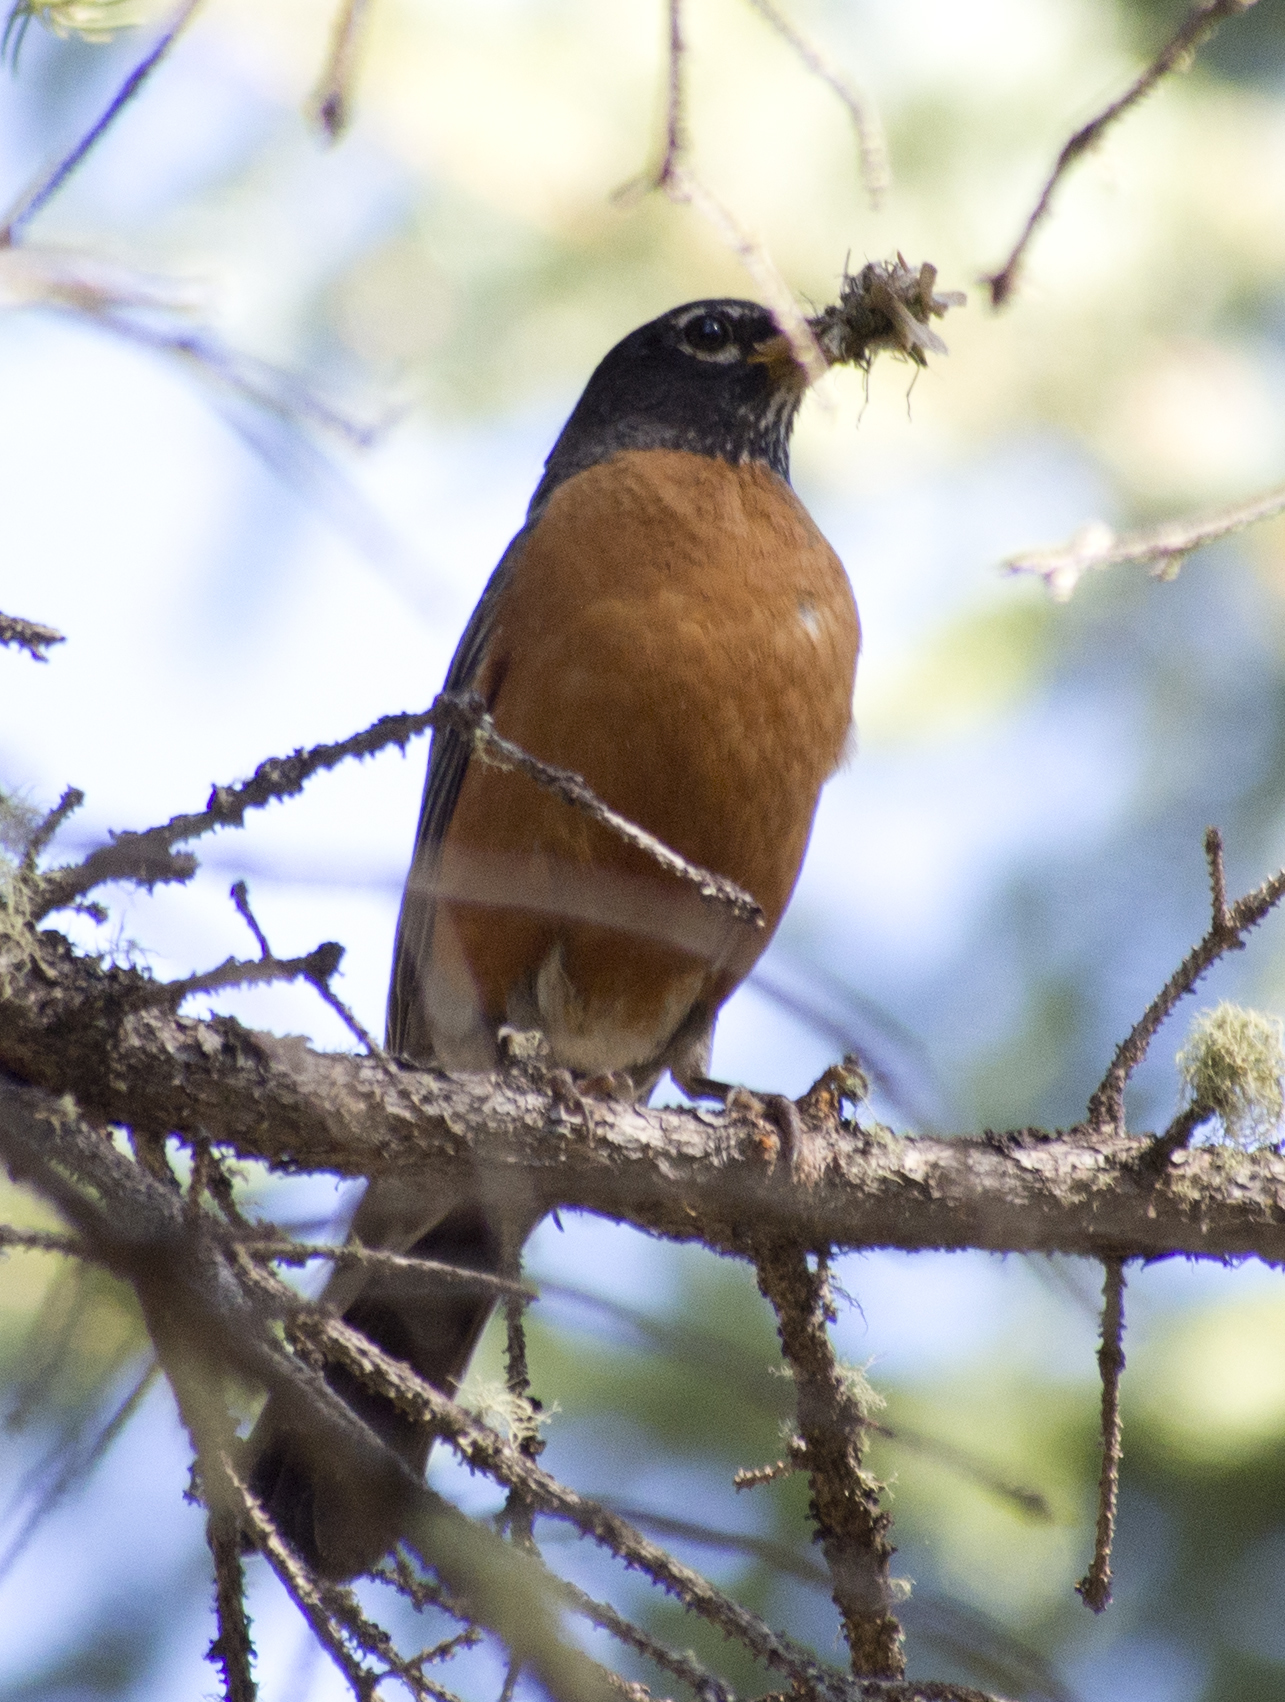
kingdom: Animalia
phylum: Chordata
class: Aves
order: Passeriformes
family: Turdidae
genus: Turdus
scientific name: Turdus migratorius
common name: American robin
